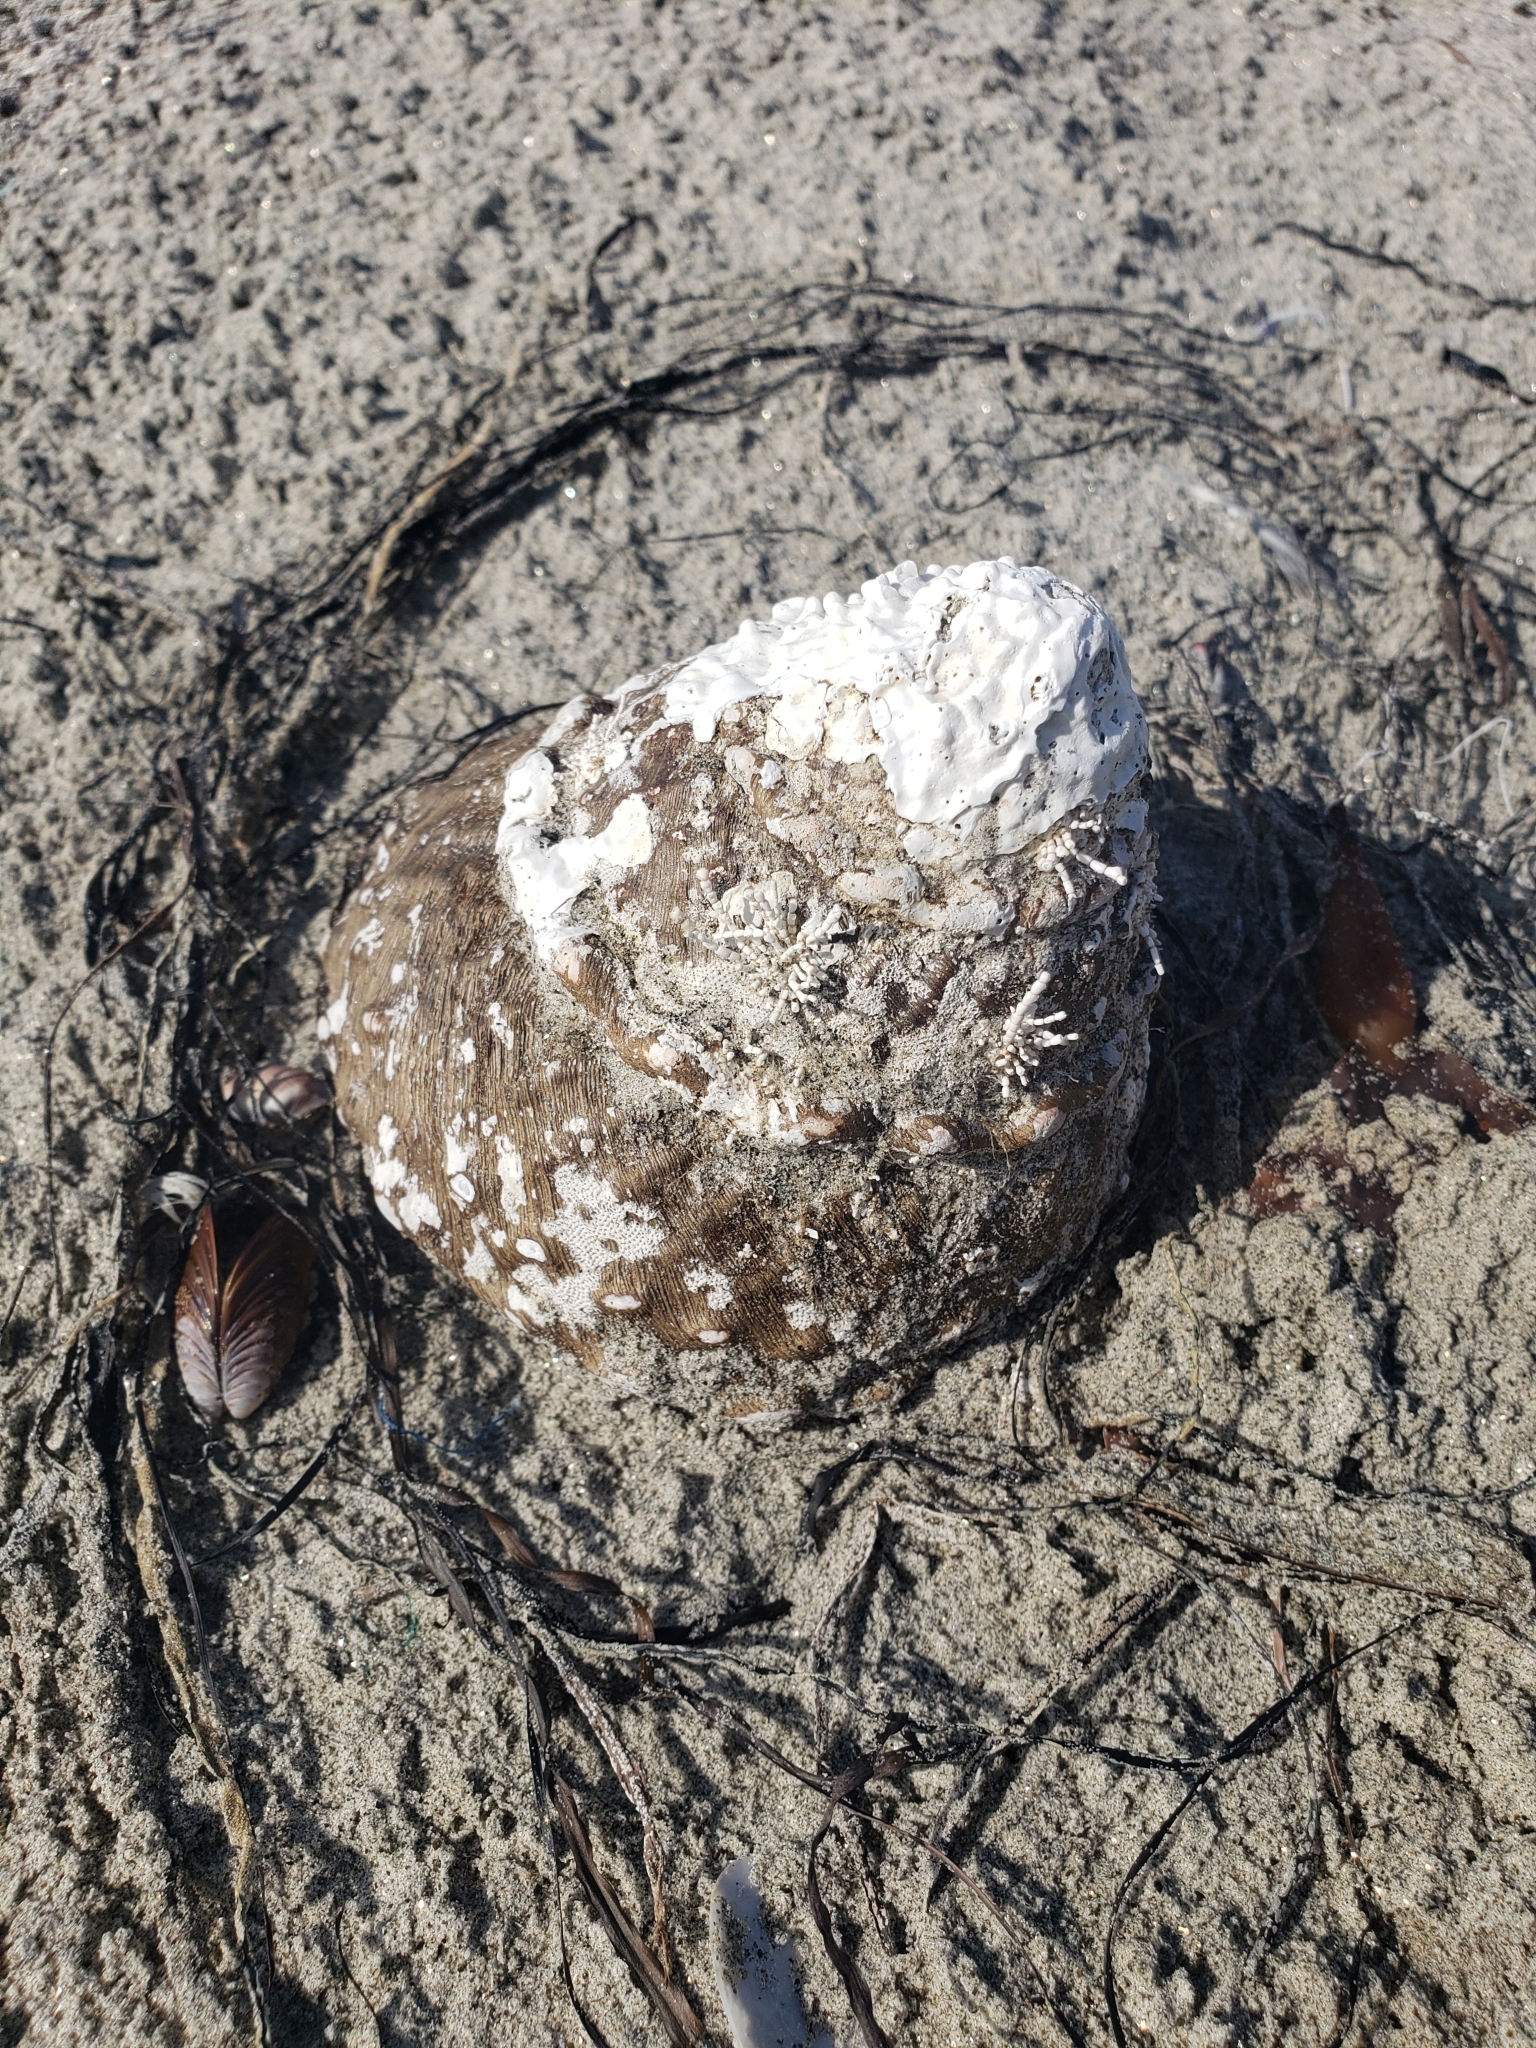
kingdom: Animalia
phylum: Mollusca
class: Gastropoda
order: Trochida
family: Turbinidae
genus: Megastraea
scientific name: Megastraea undosa
